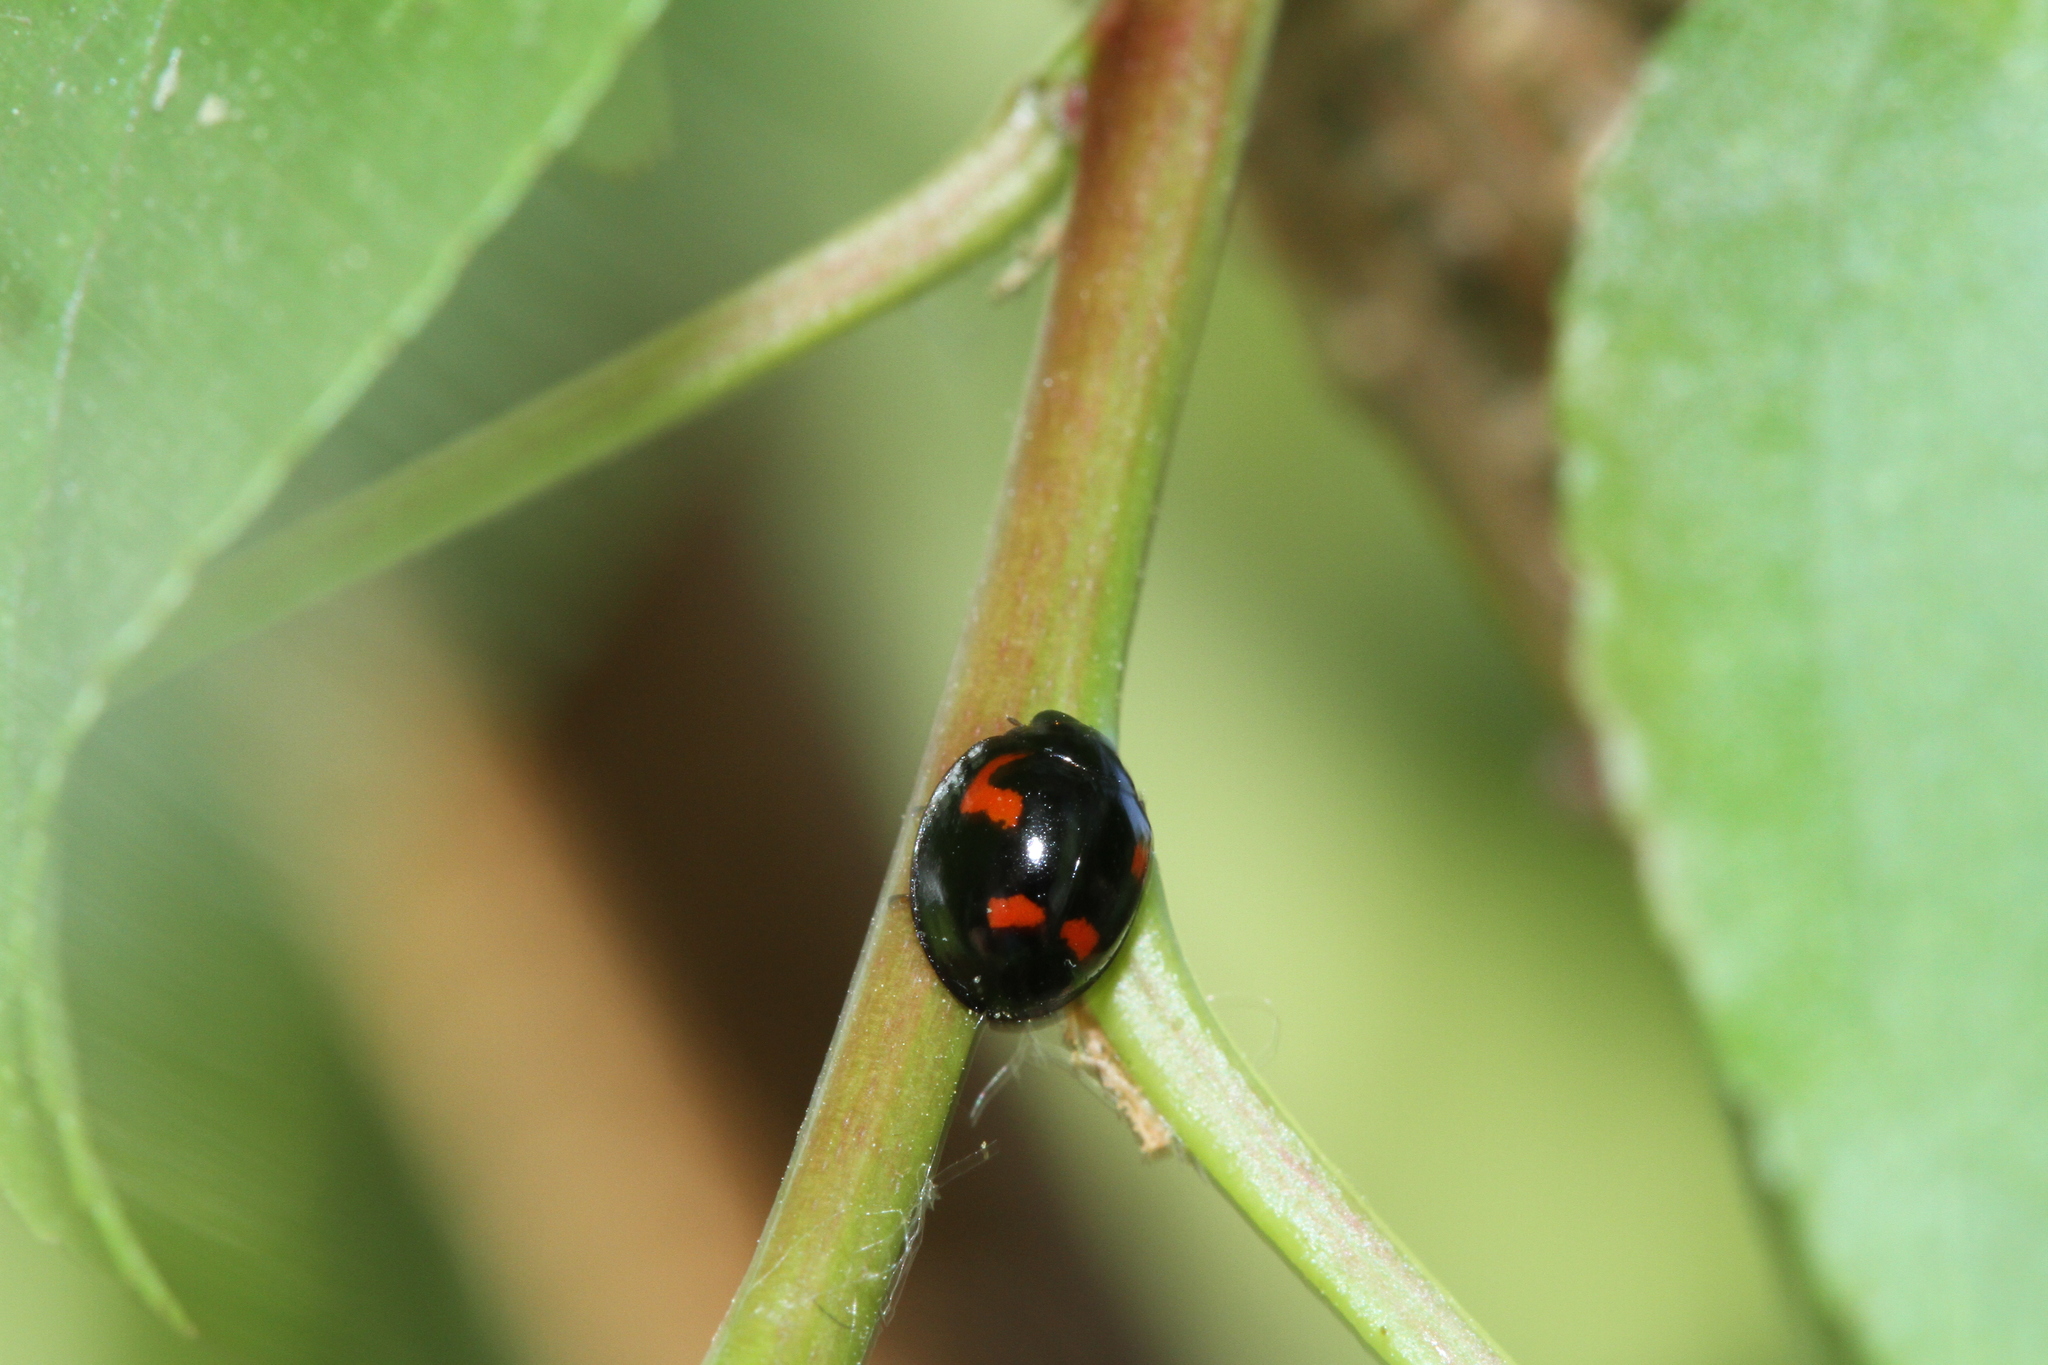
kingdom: Animalia
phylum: Arthropoda
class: Insecta
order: Coleoptera
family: Coccinellidae
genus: Brumus
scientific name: Brumus quadripustulatus
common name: Ladybird beetle
